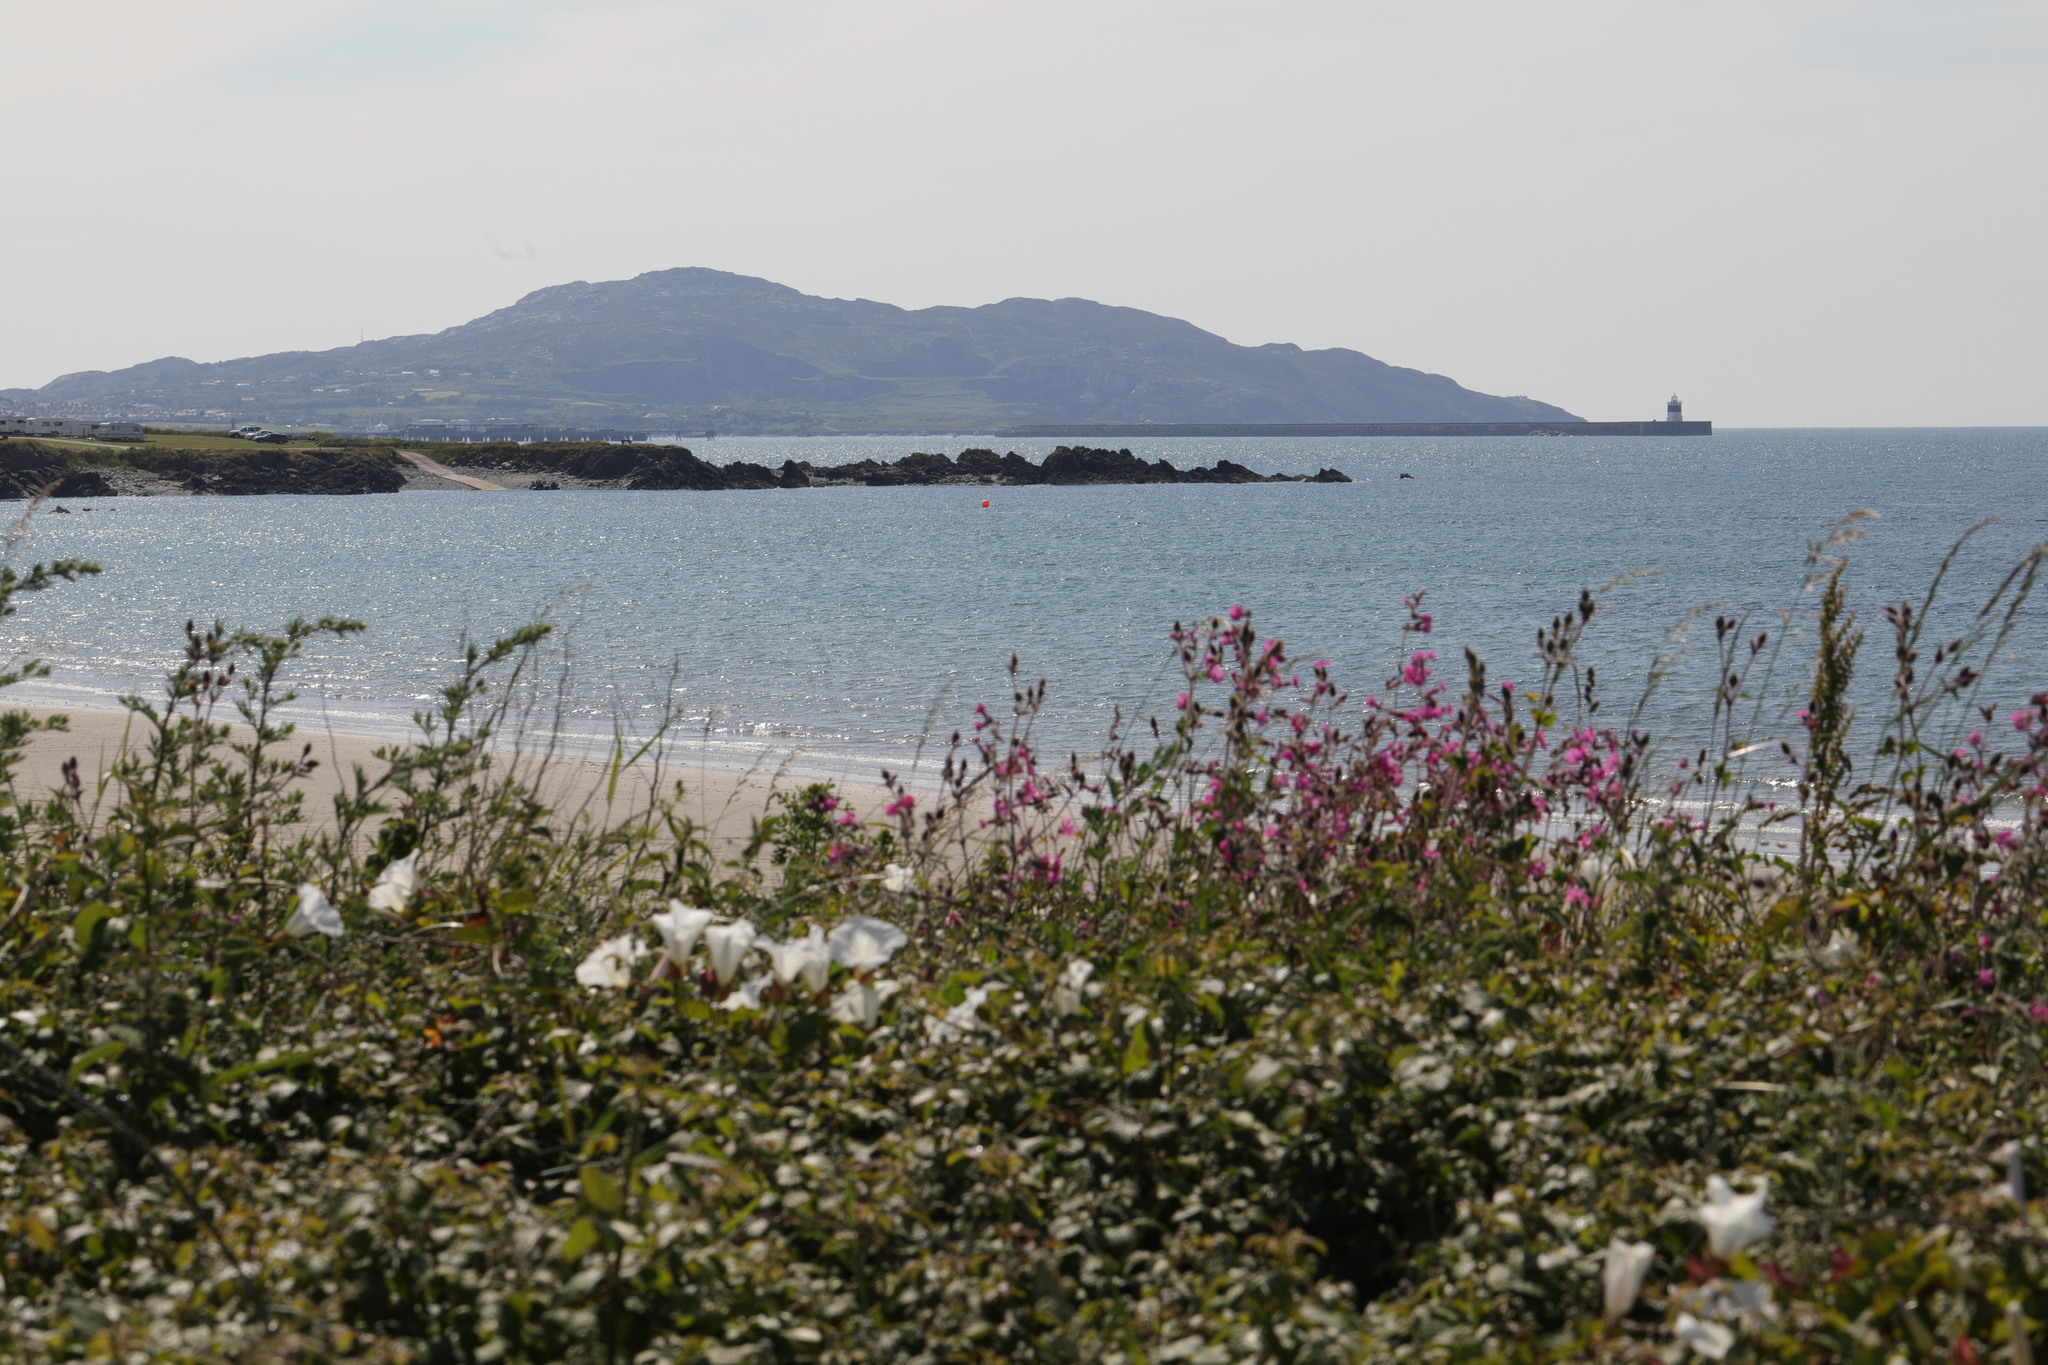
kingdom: Plantae
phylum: Tracheophyta
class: Magnoliopsida
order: Caryophyllales
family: Caryophyllaceae
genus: Silene
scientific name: Silene dioica
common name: Red campion
